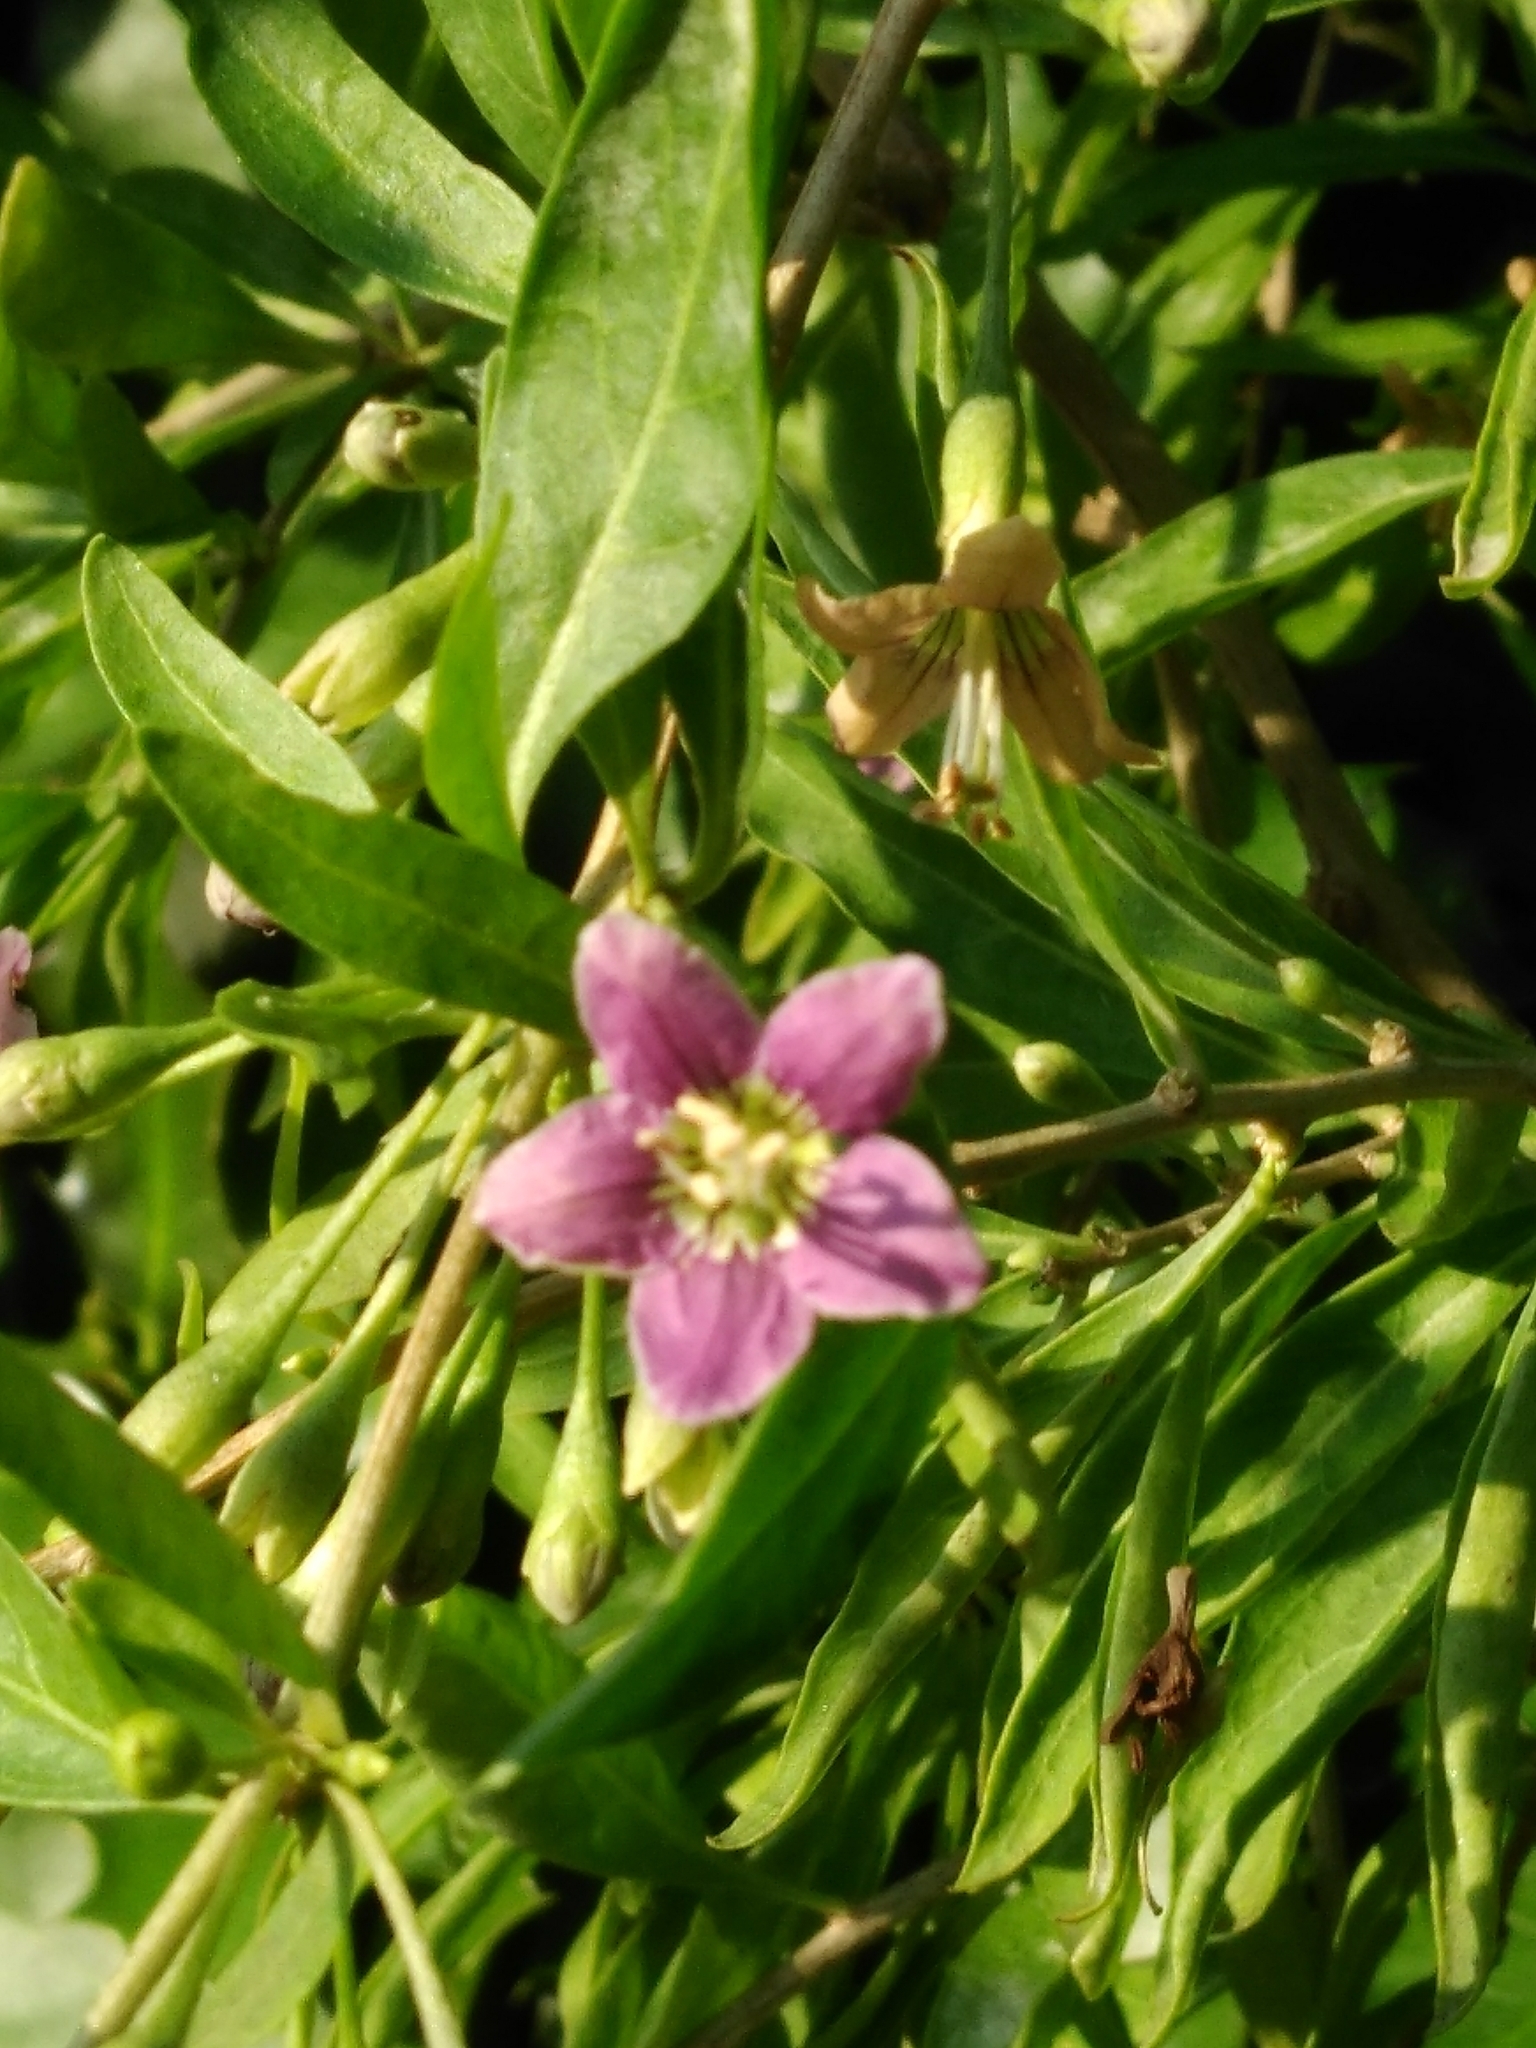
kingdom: Plantae
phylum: Tracheophyta
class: Magnoliopsida
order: Solanales
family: Solanaceae
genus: Lycium
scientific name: Lycium barbarum
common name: Duke of argyll's teaplant
